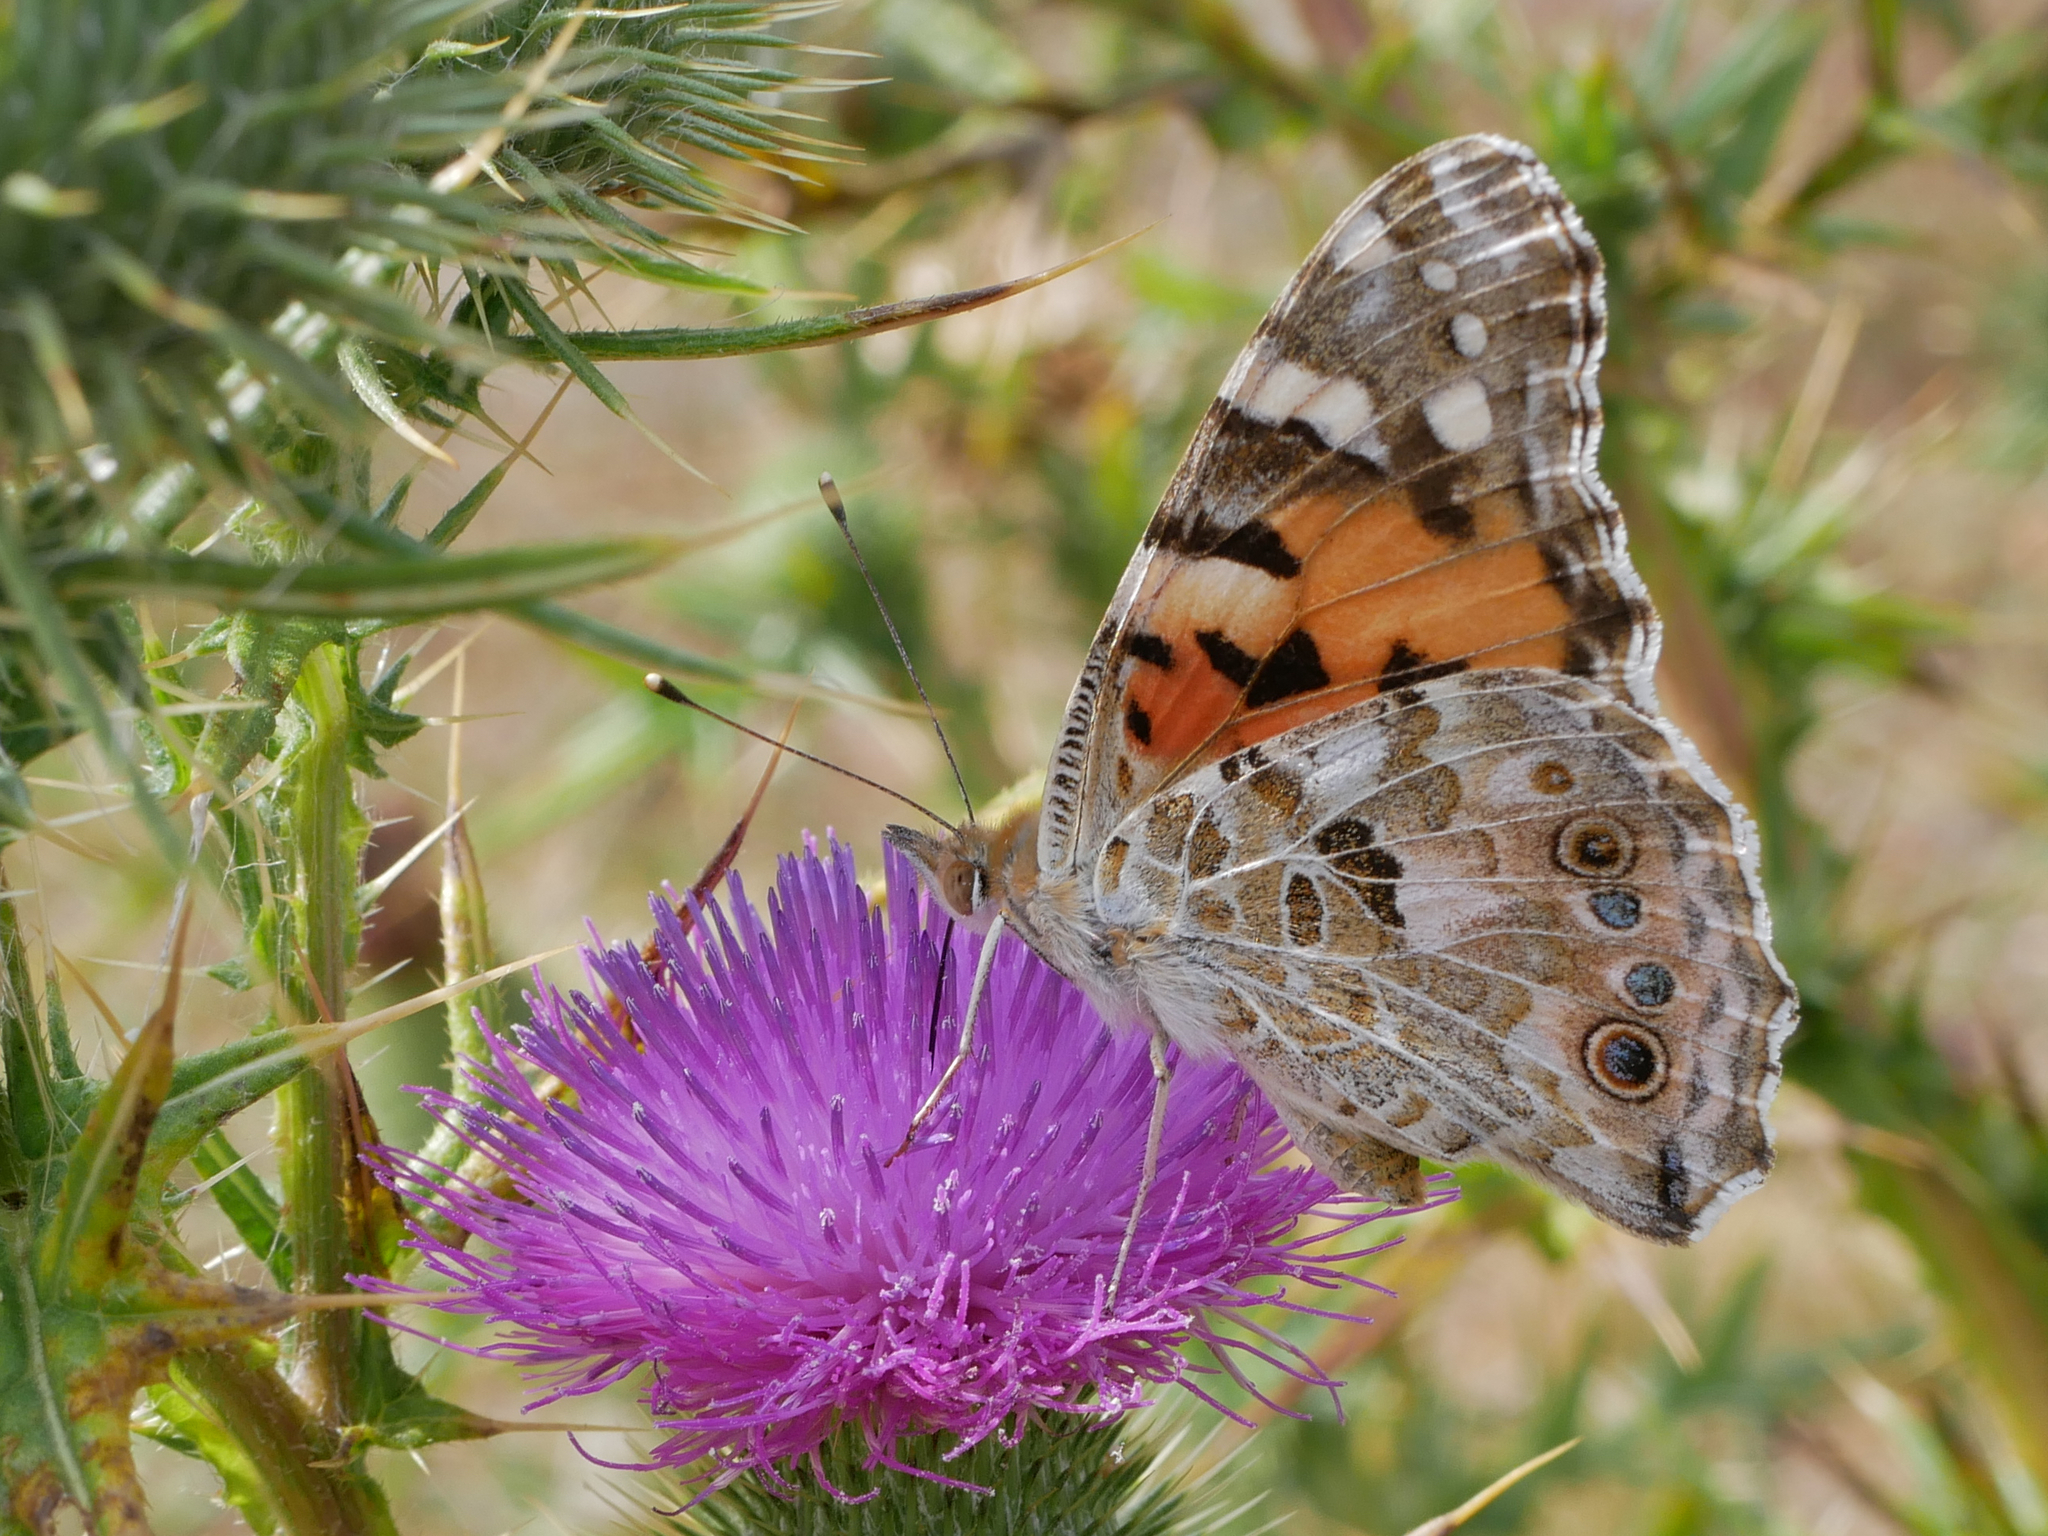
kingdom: Animalia
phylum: Arthropoda
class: Insecta
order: Lepidoptera
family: Nymphalidae
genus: Vanessa
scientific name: Vanessa cardui
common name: Painted lady
